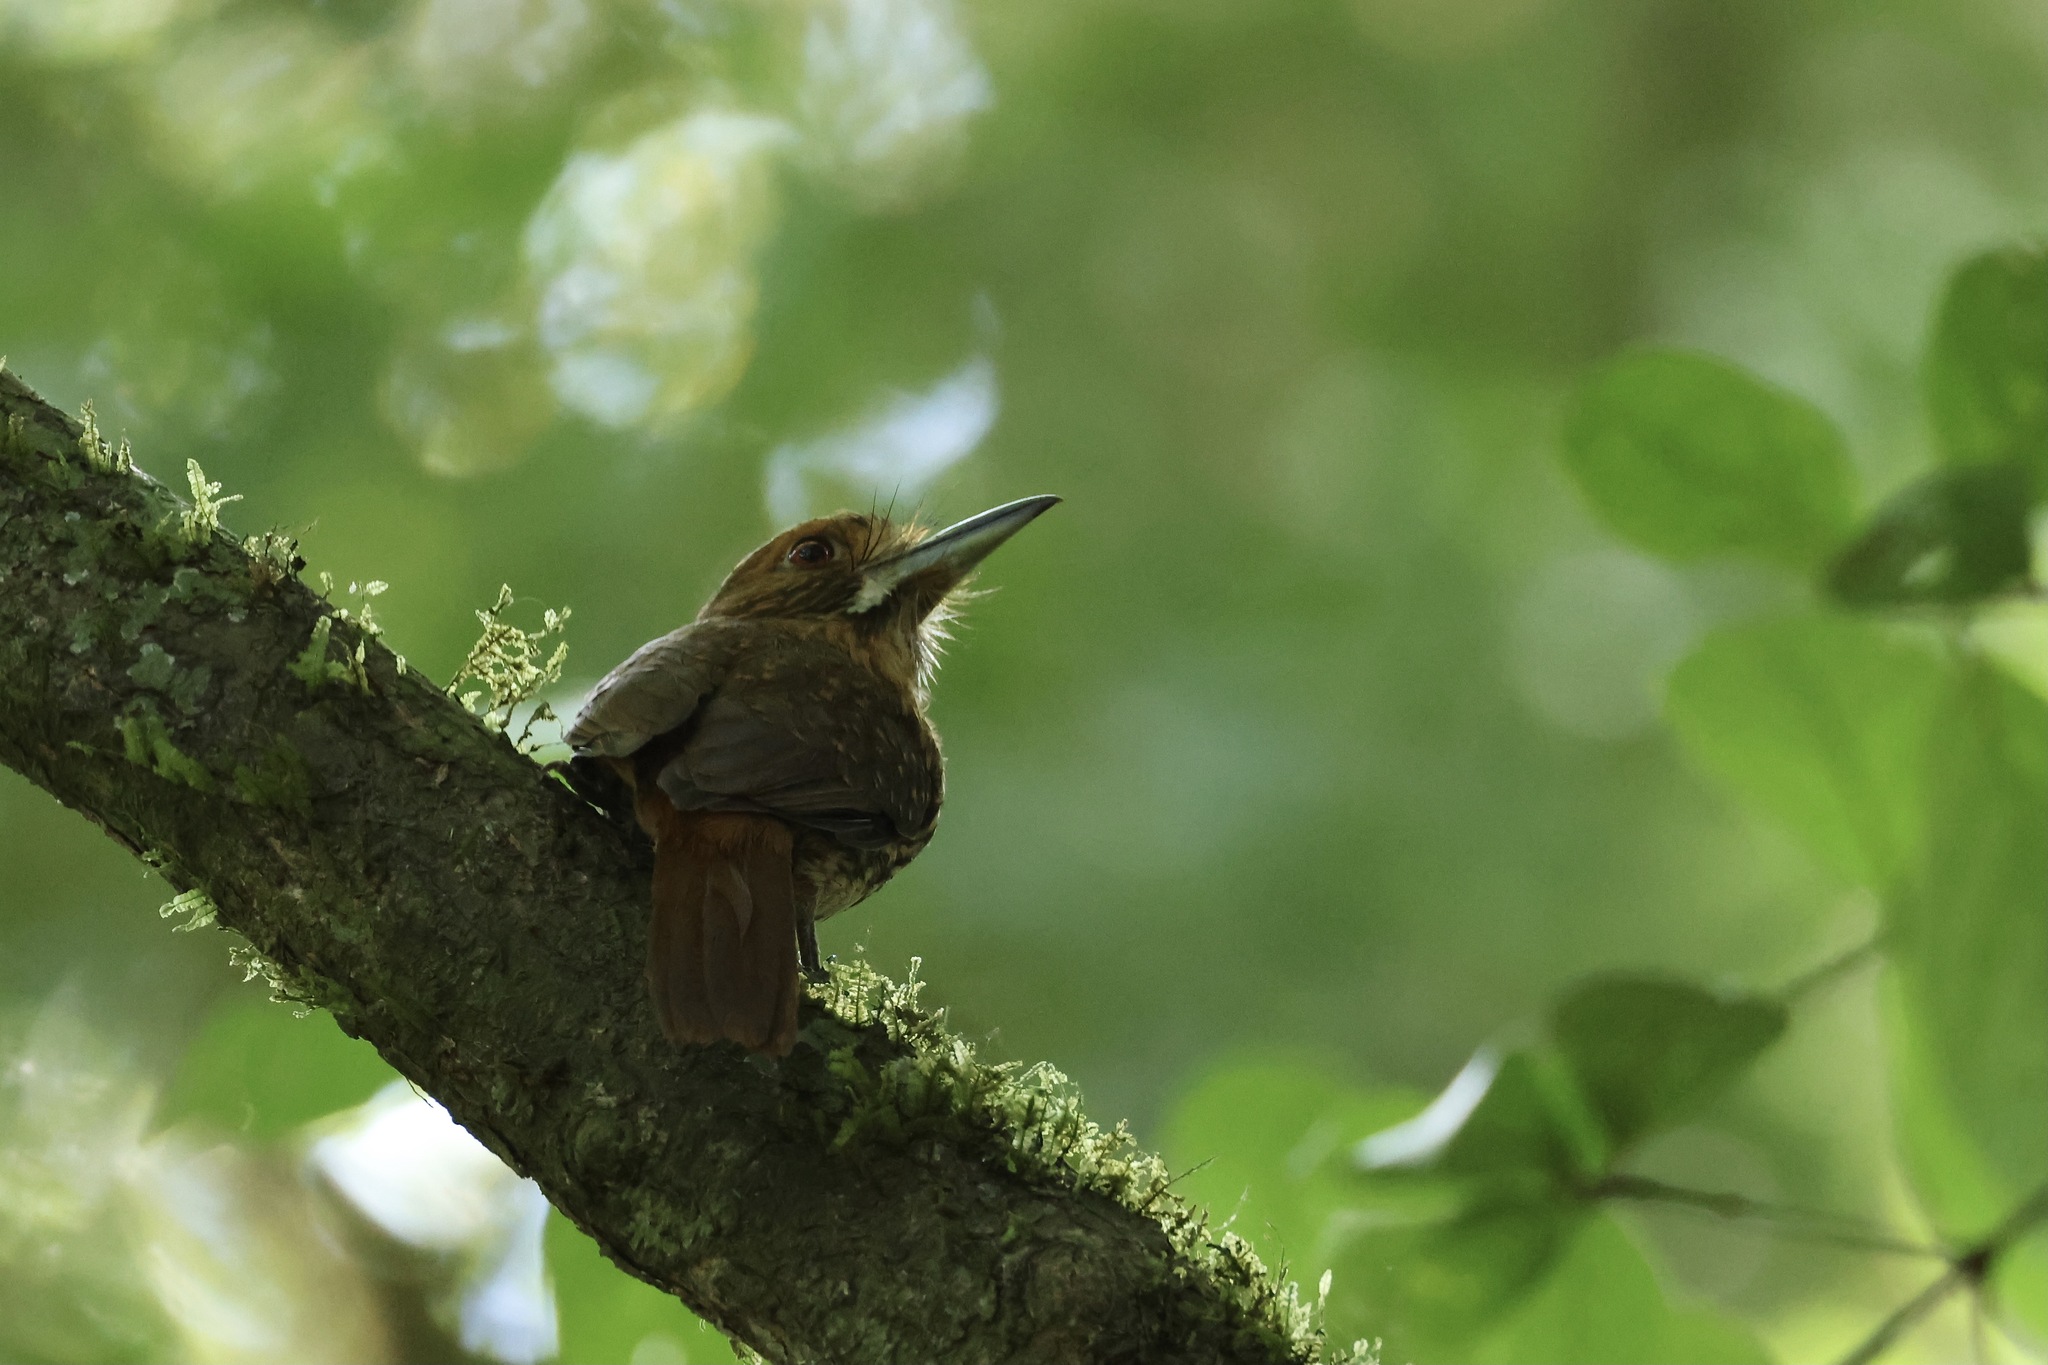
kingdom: Animalia
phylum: Chordata
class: Aves
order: Piciformes
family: Bucconidae
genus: Malacoptila
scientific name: Malacoptila panamensis
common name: White-whiskered puffbird
